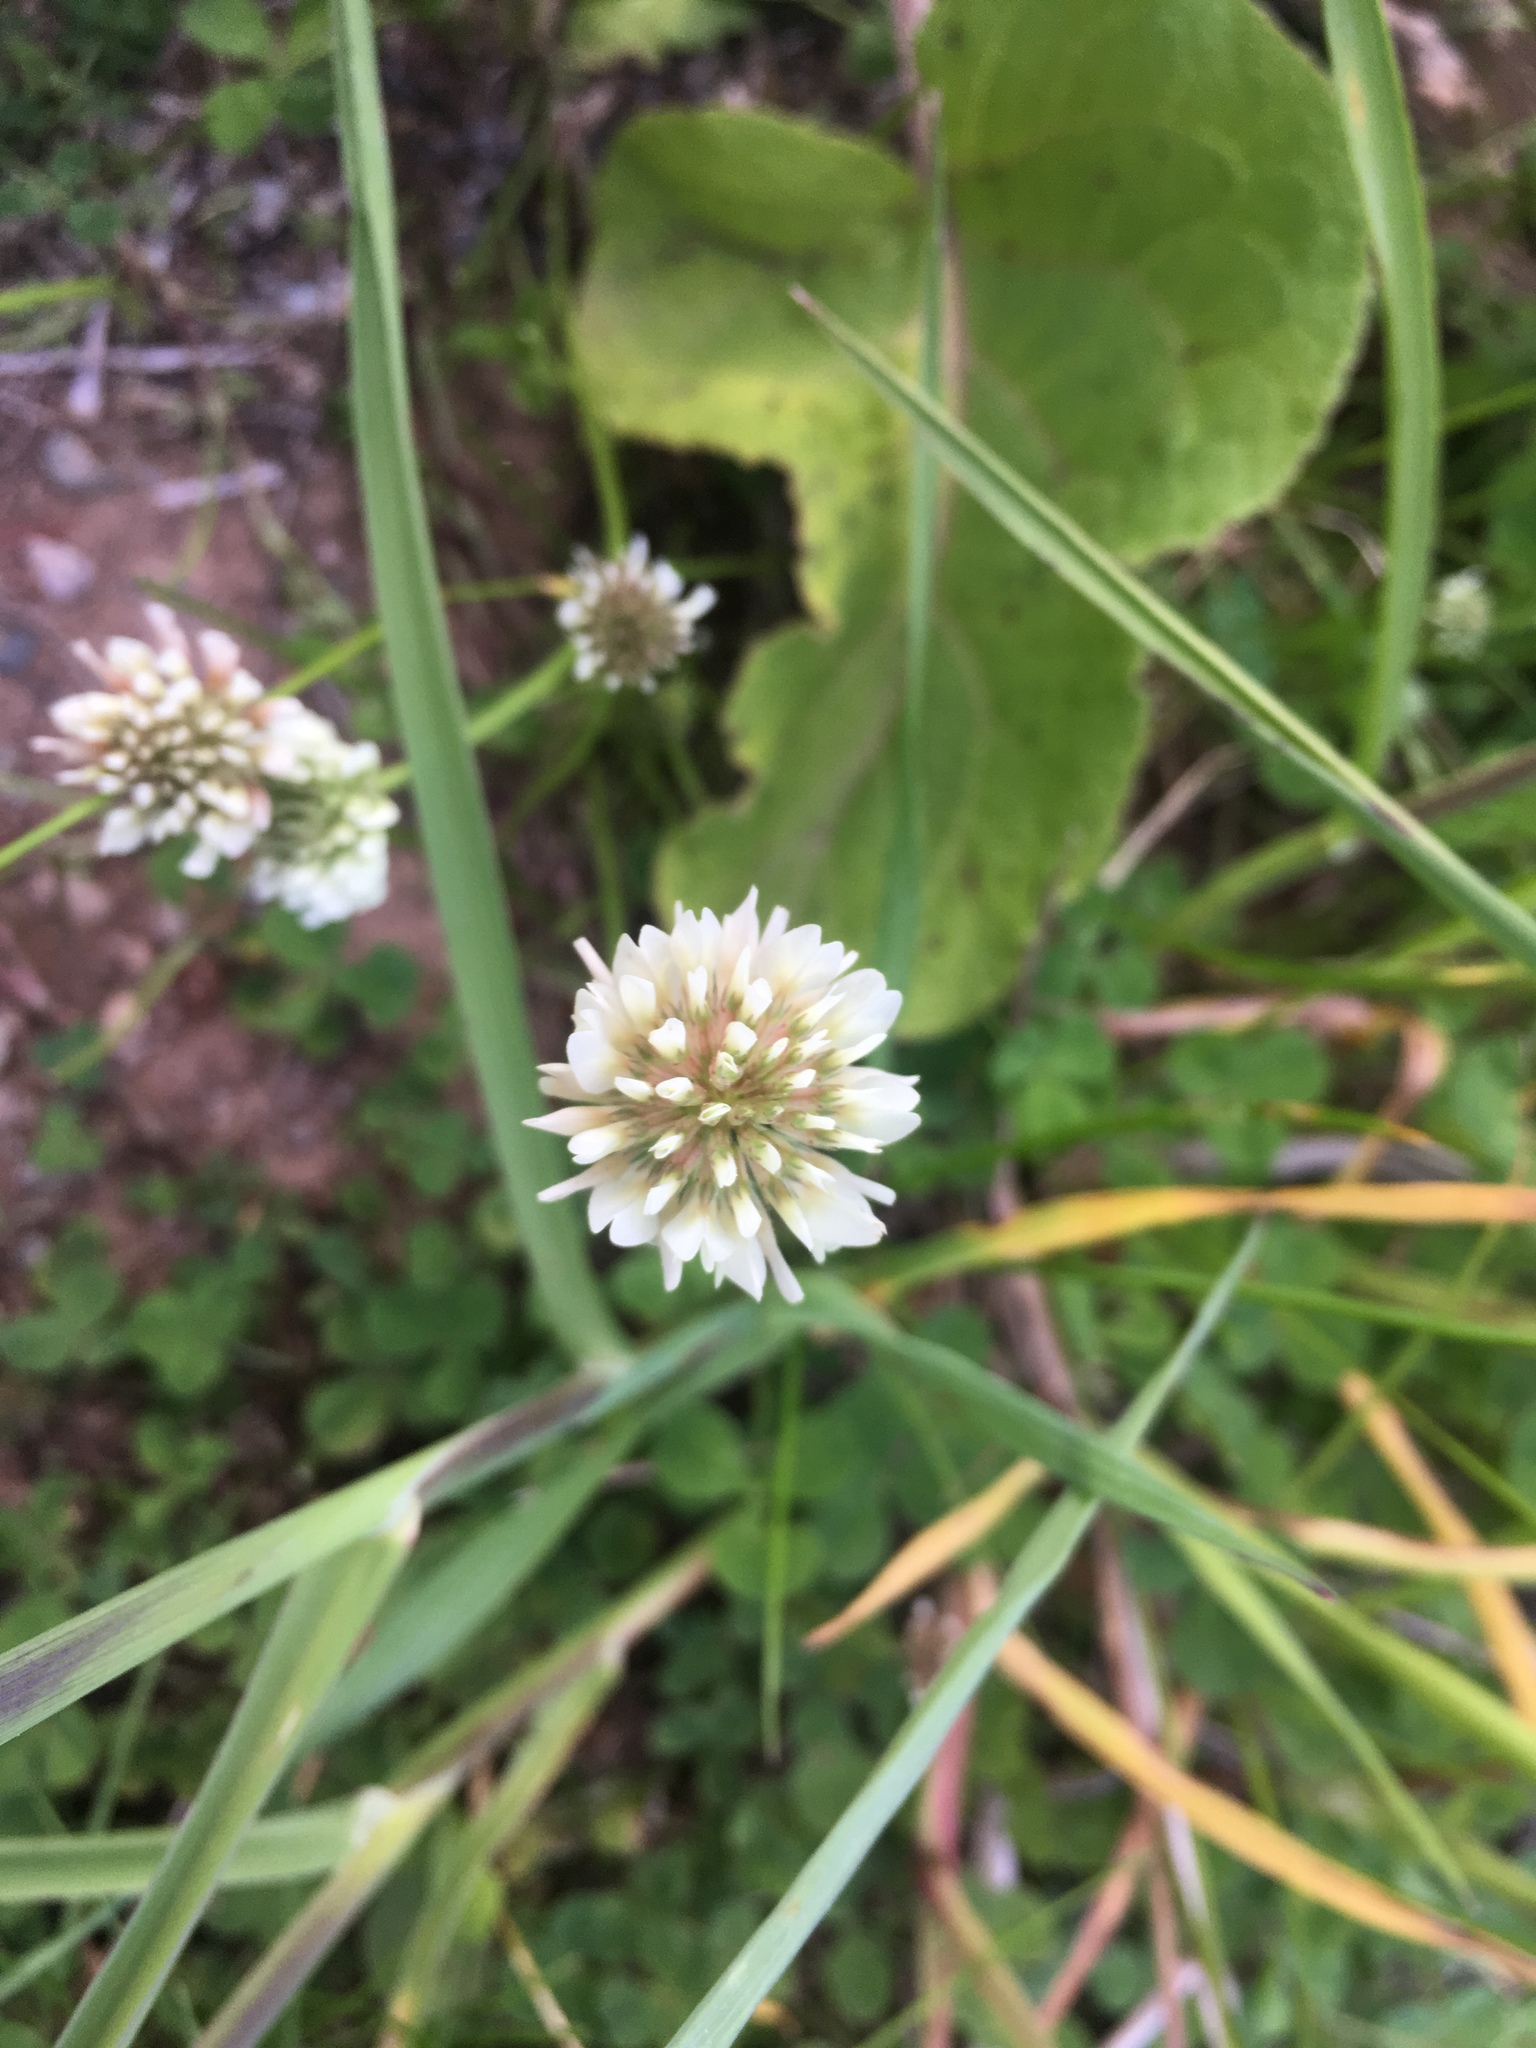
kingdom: Plantae
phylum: Tracheophyta
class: Magnoliopsida
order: Fabales
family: Fabaceae
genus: Trifolium
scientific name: Trifolium repens
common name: White clover
